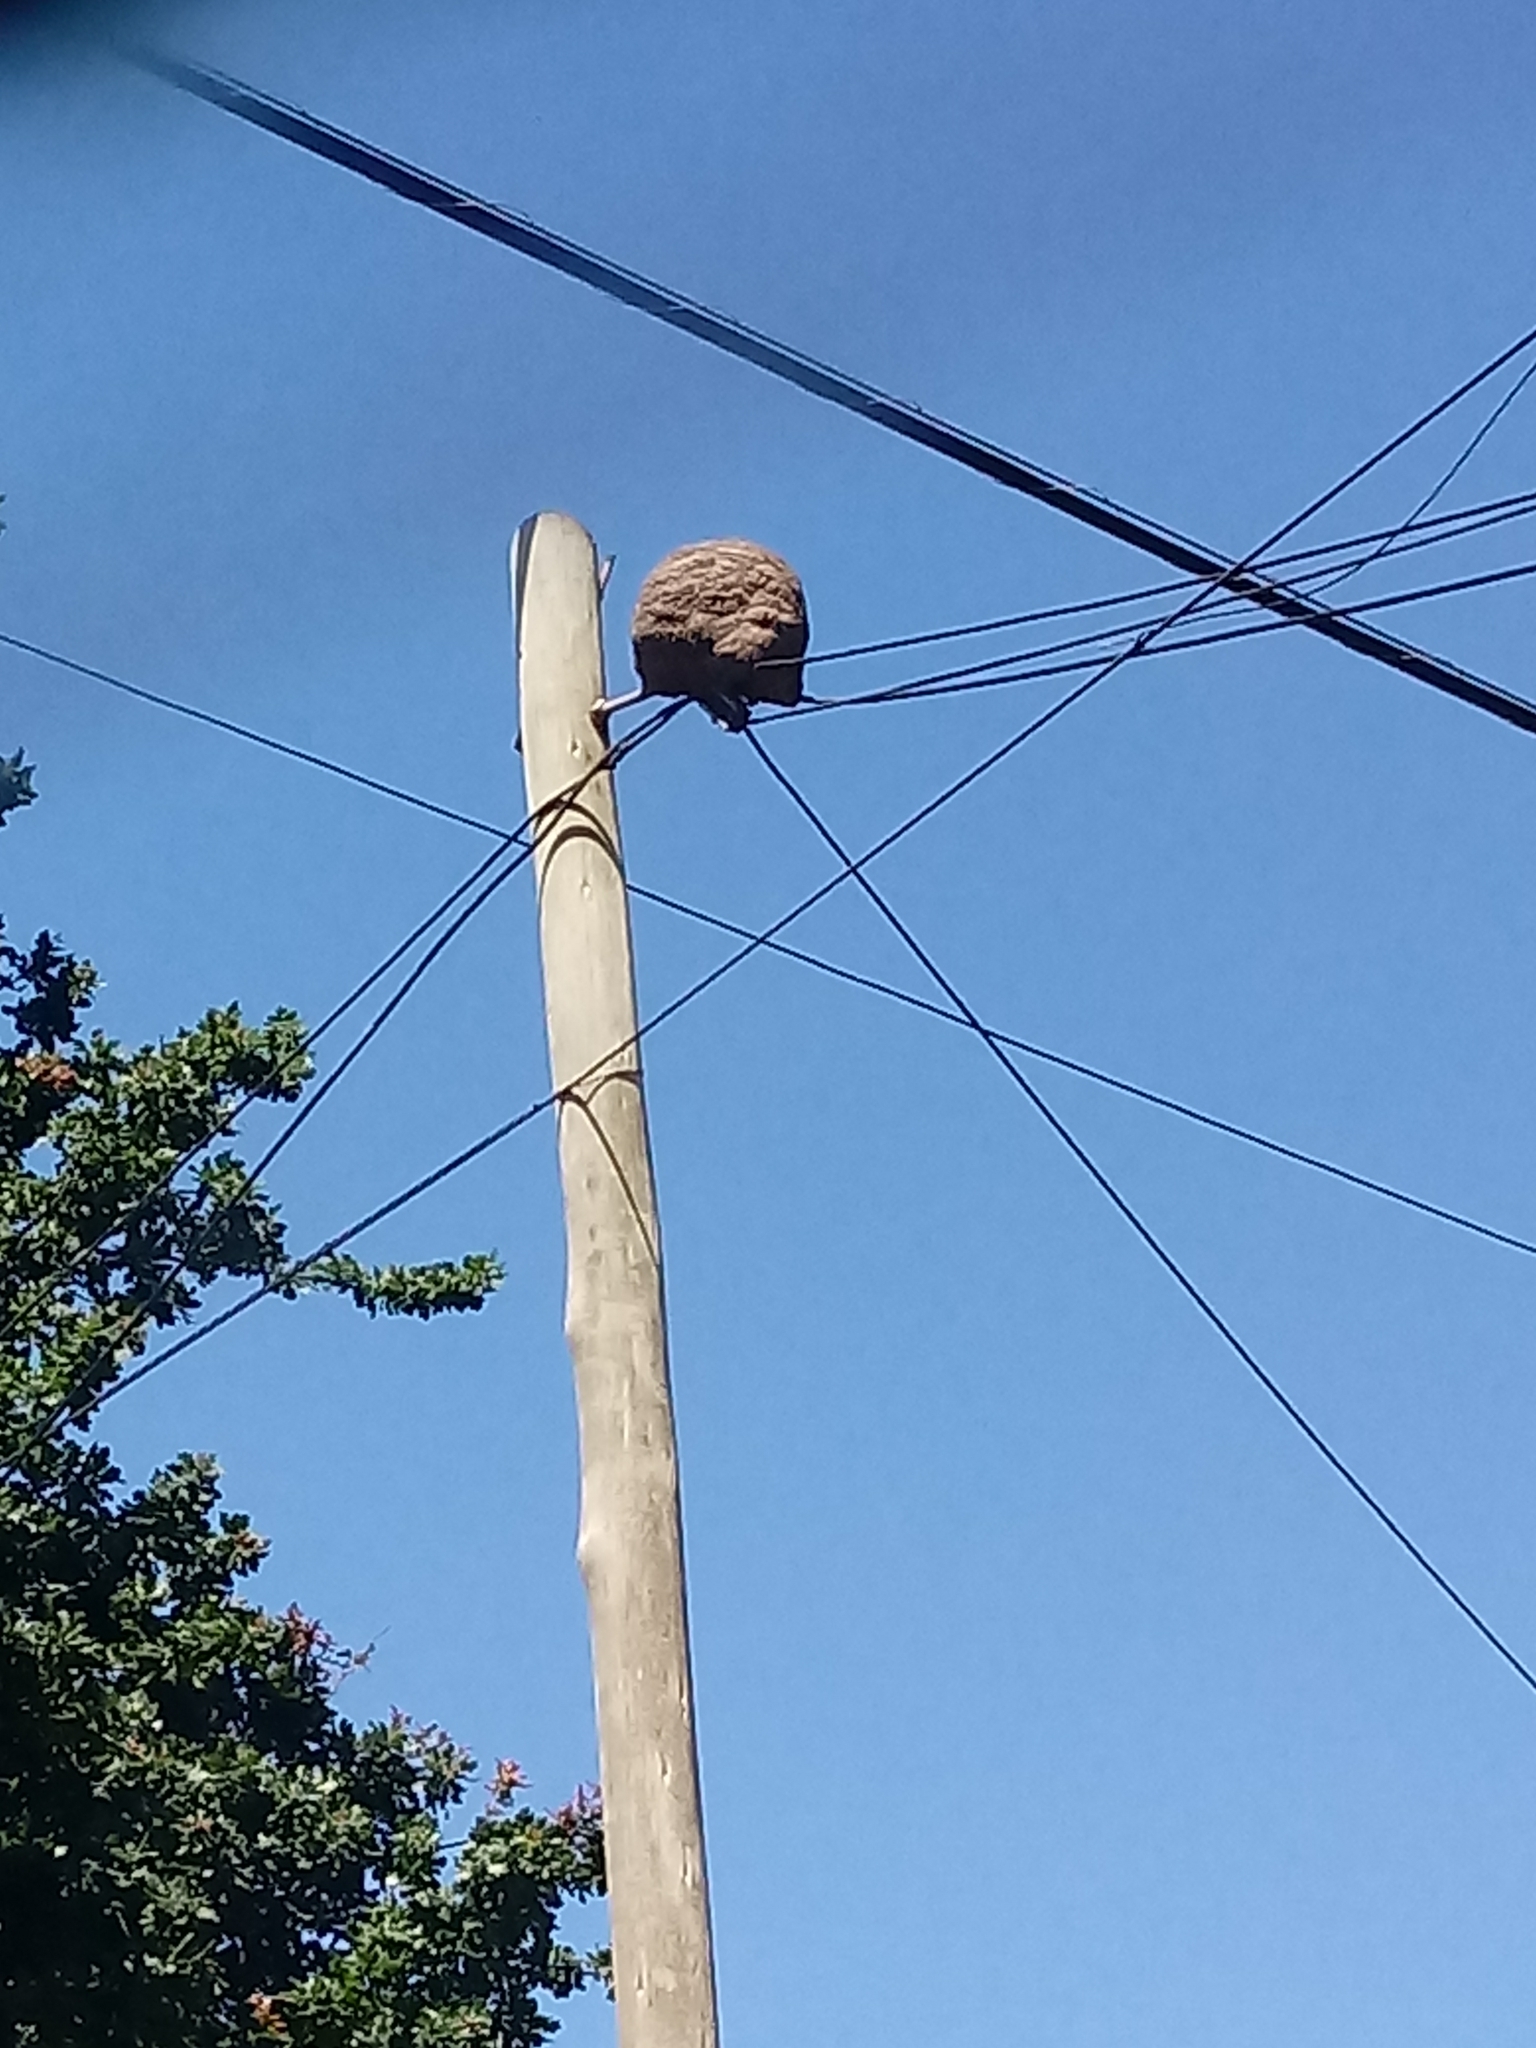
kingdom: Animalia
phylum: Chordata
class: Aves
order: Passeriformes
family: Furnariidae
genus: Furnarius
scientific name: Furnarius rufus
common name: Rufous hornero
